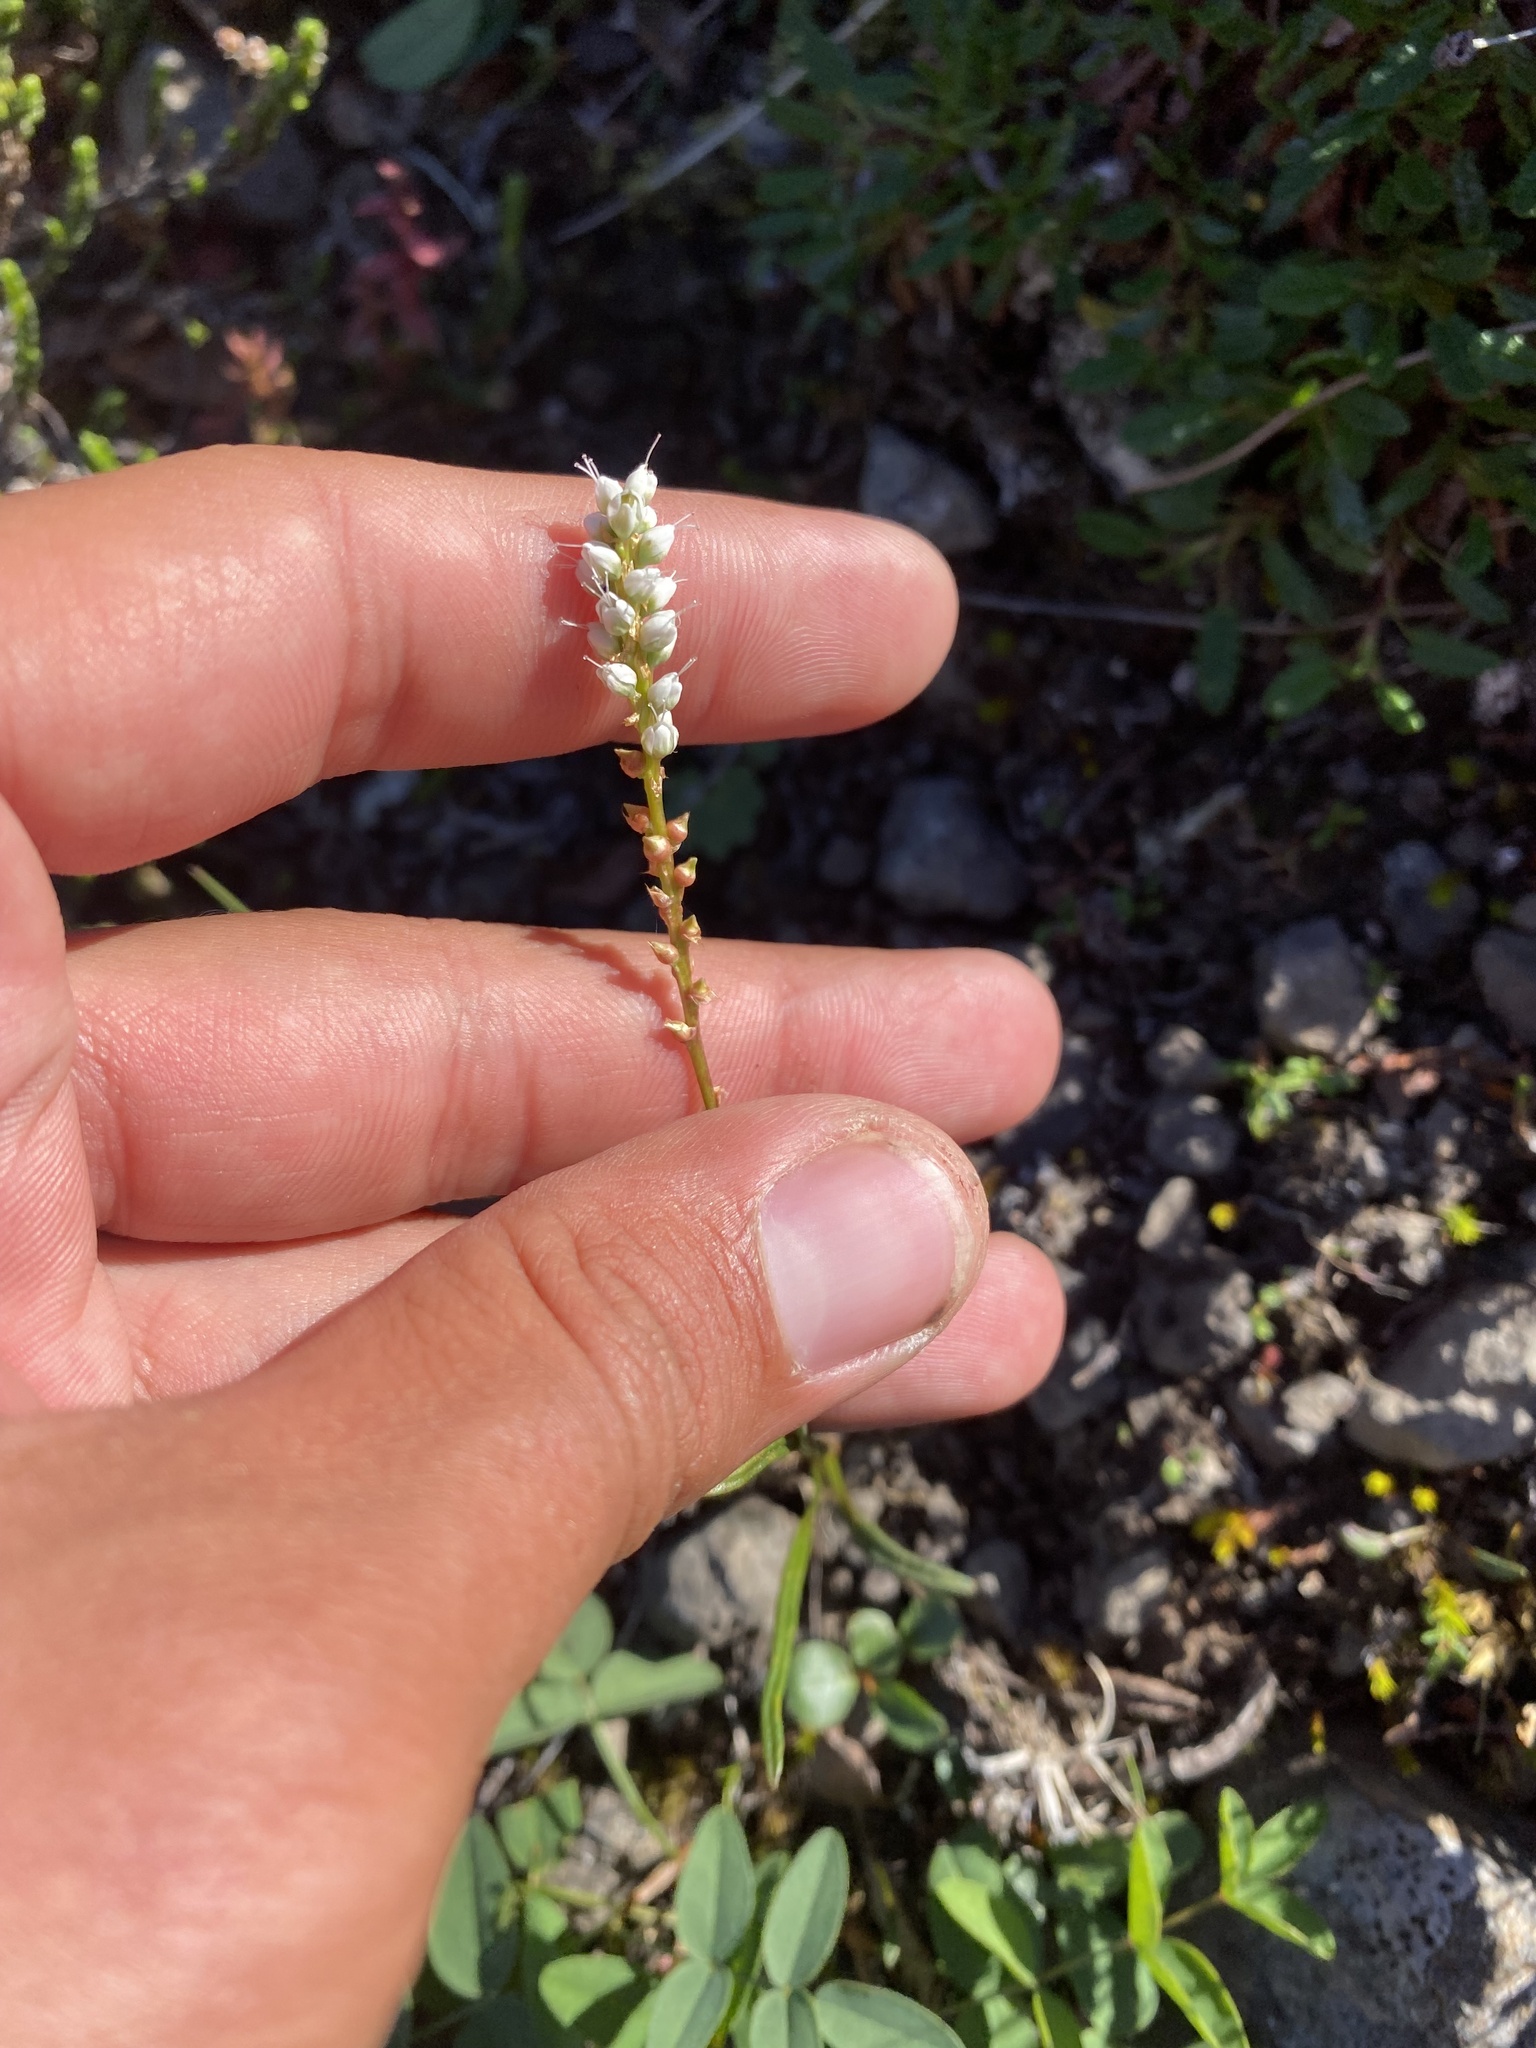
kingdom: Plantae
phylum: Tracheophyta
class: Magnoliopsida
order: Caryophyllales
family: Polygonaceae
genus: Bistorta
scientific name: Bistorta vivipara
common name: Alpine bistort
